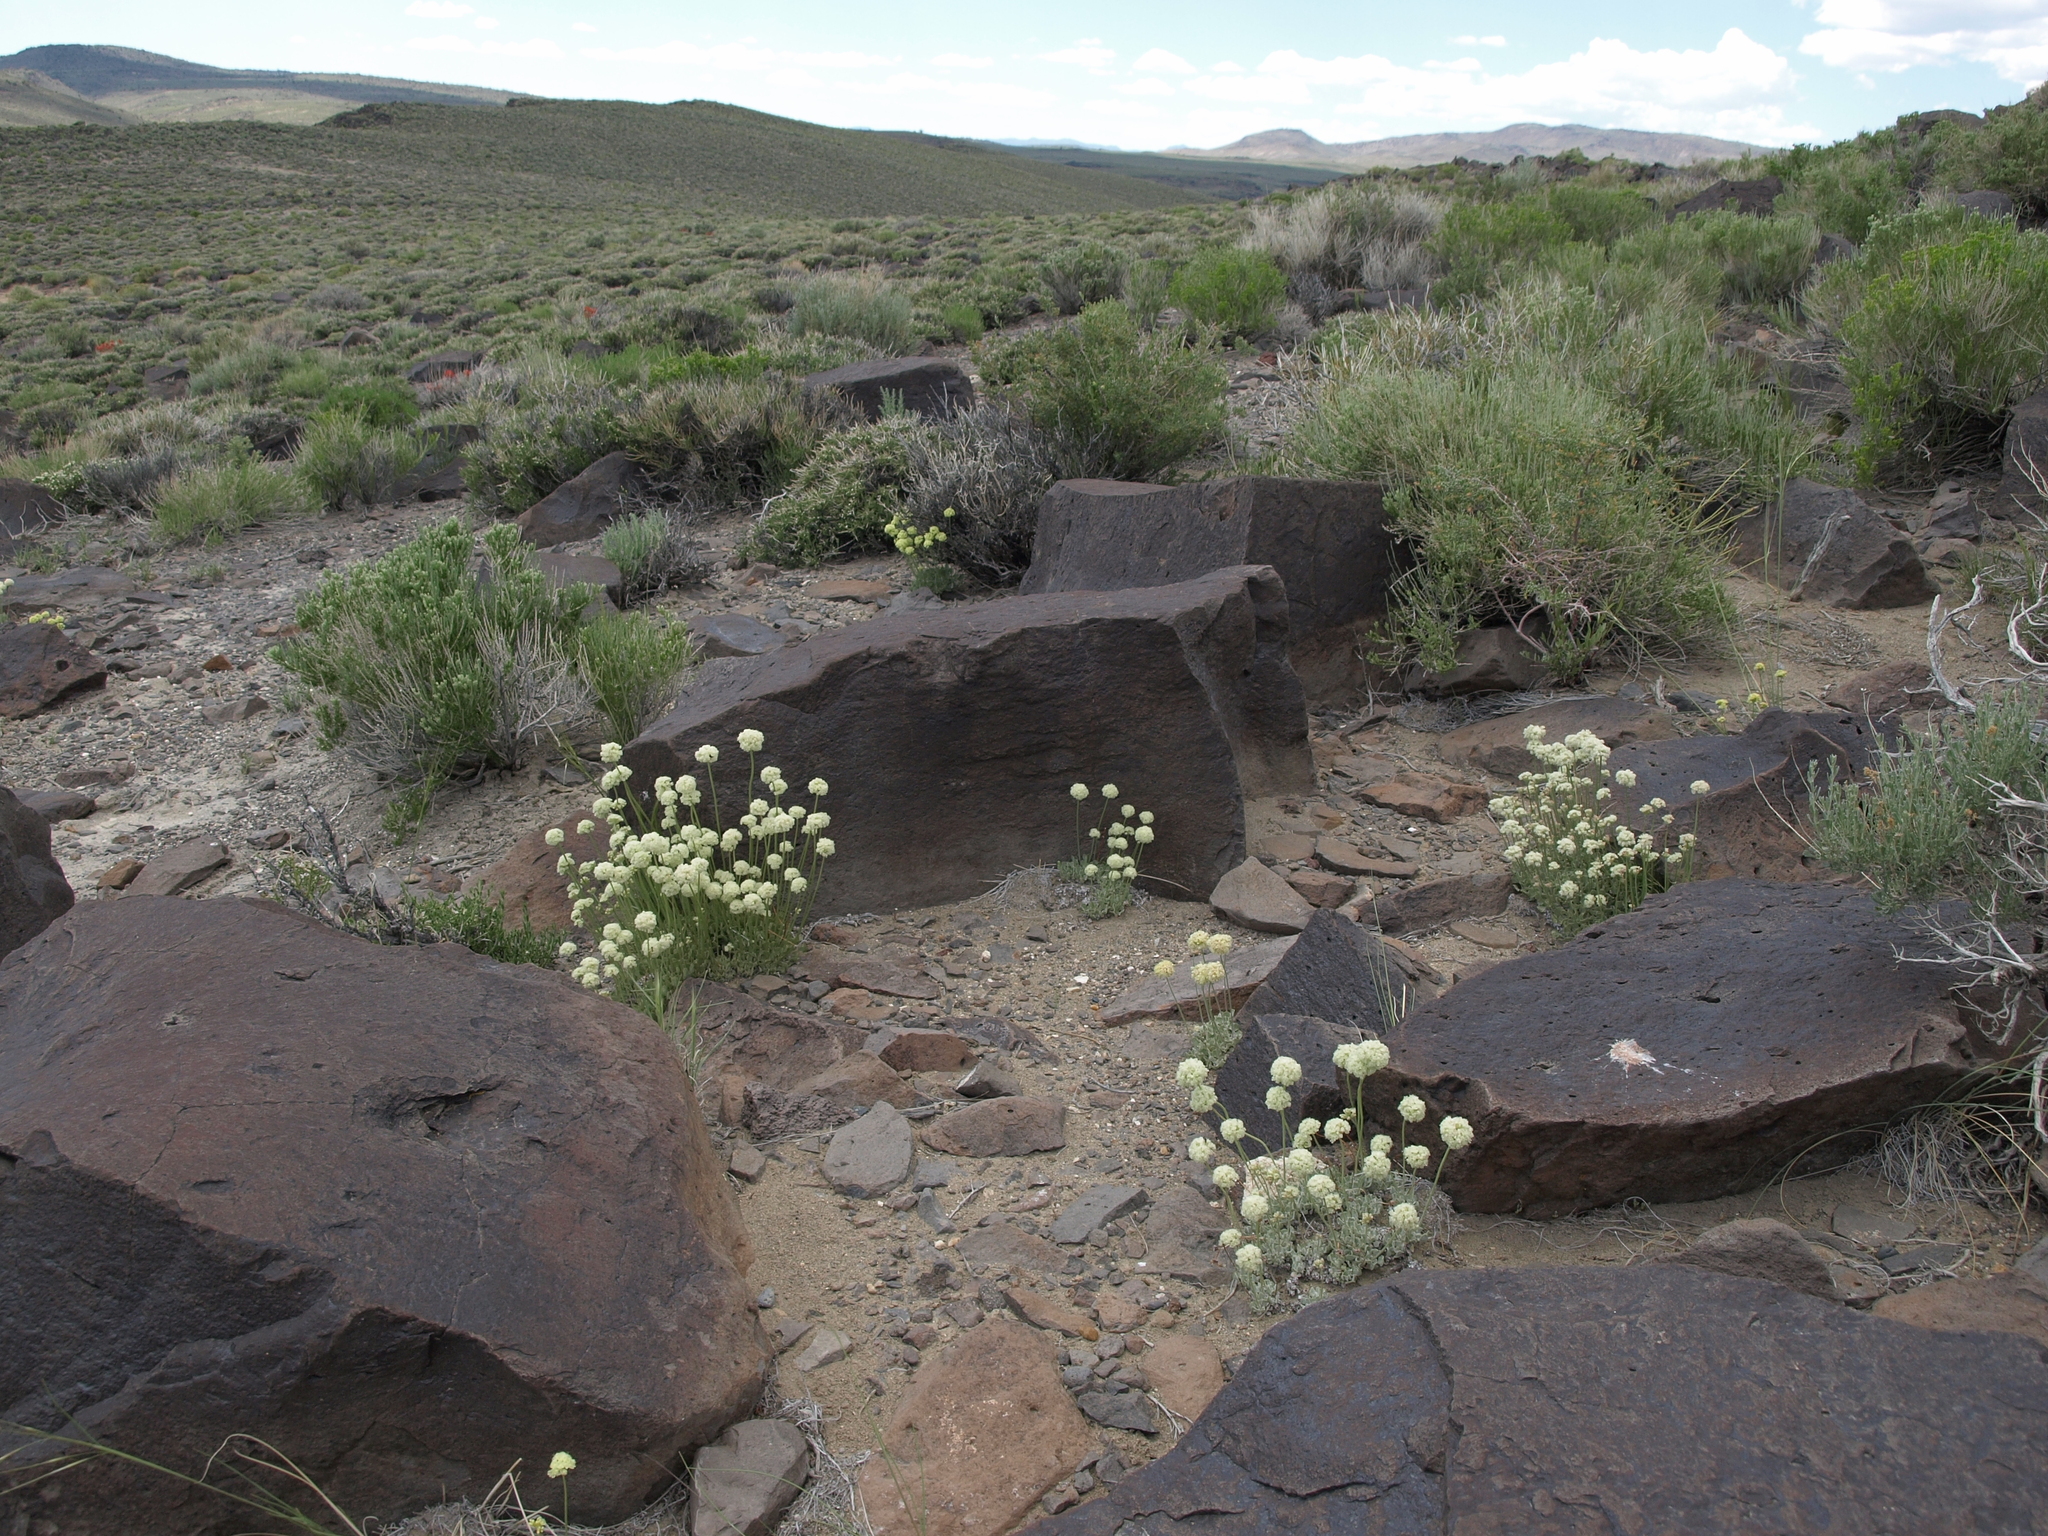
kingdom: Plantae
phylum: Tracheophyta
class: Magnoliopsida
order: Caryophyllales
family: Polygonaceae
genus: Eriogonum
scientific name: Eriogonum ovalifolium
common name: Cushion buckwheat
